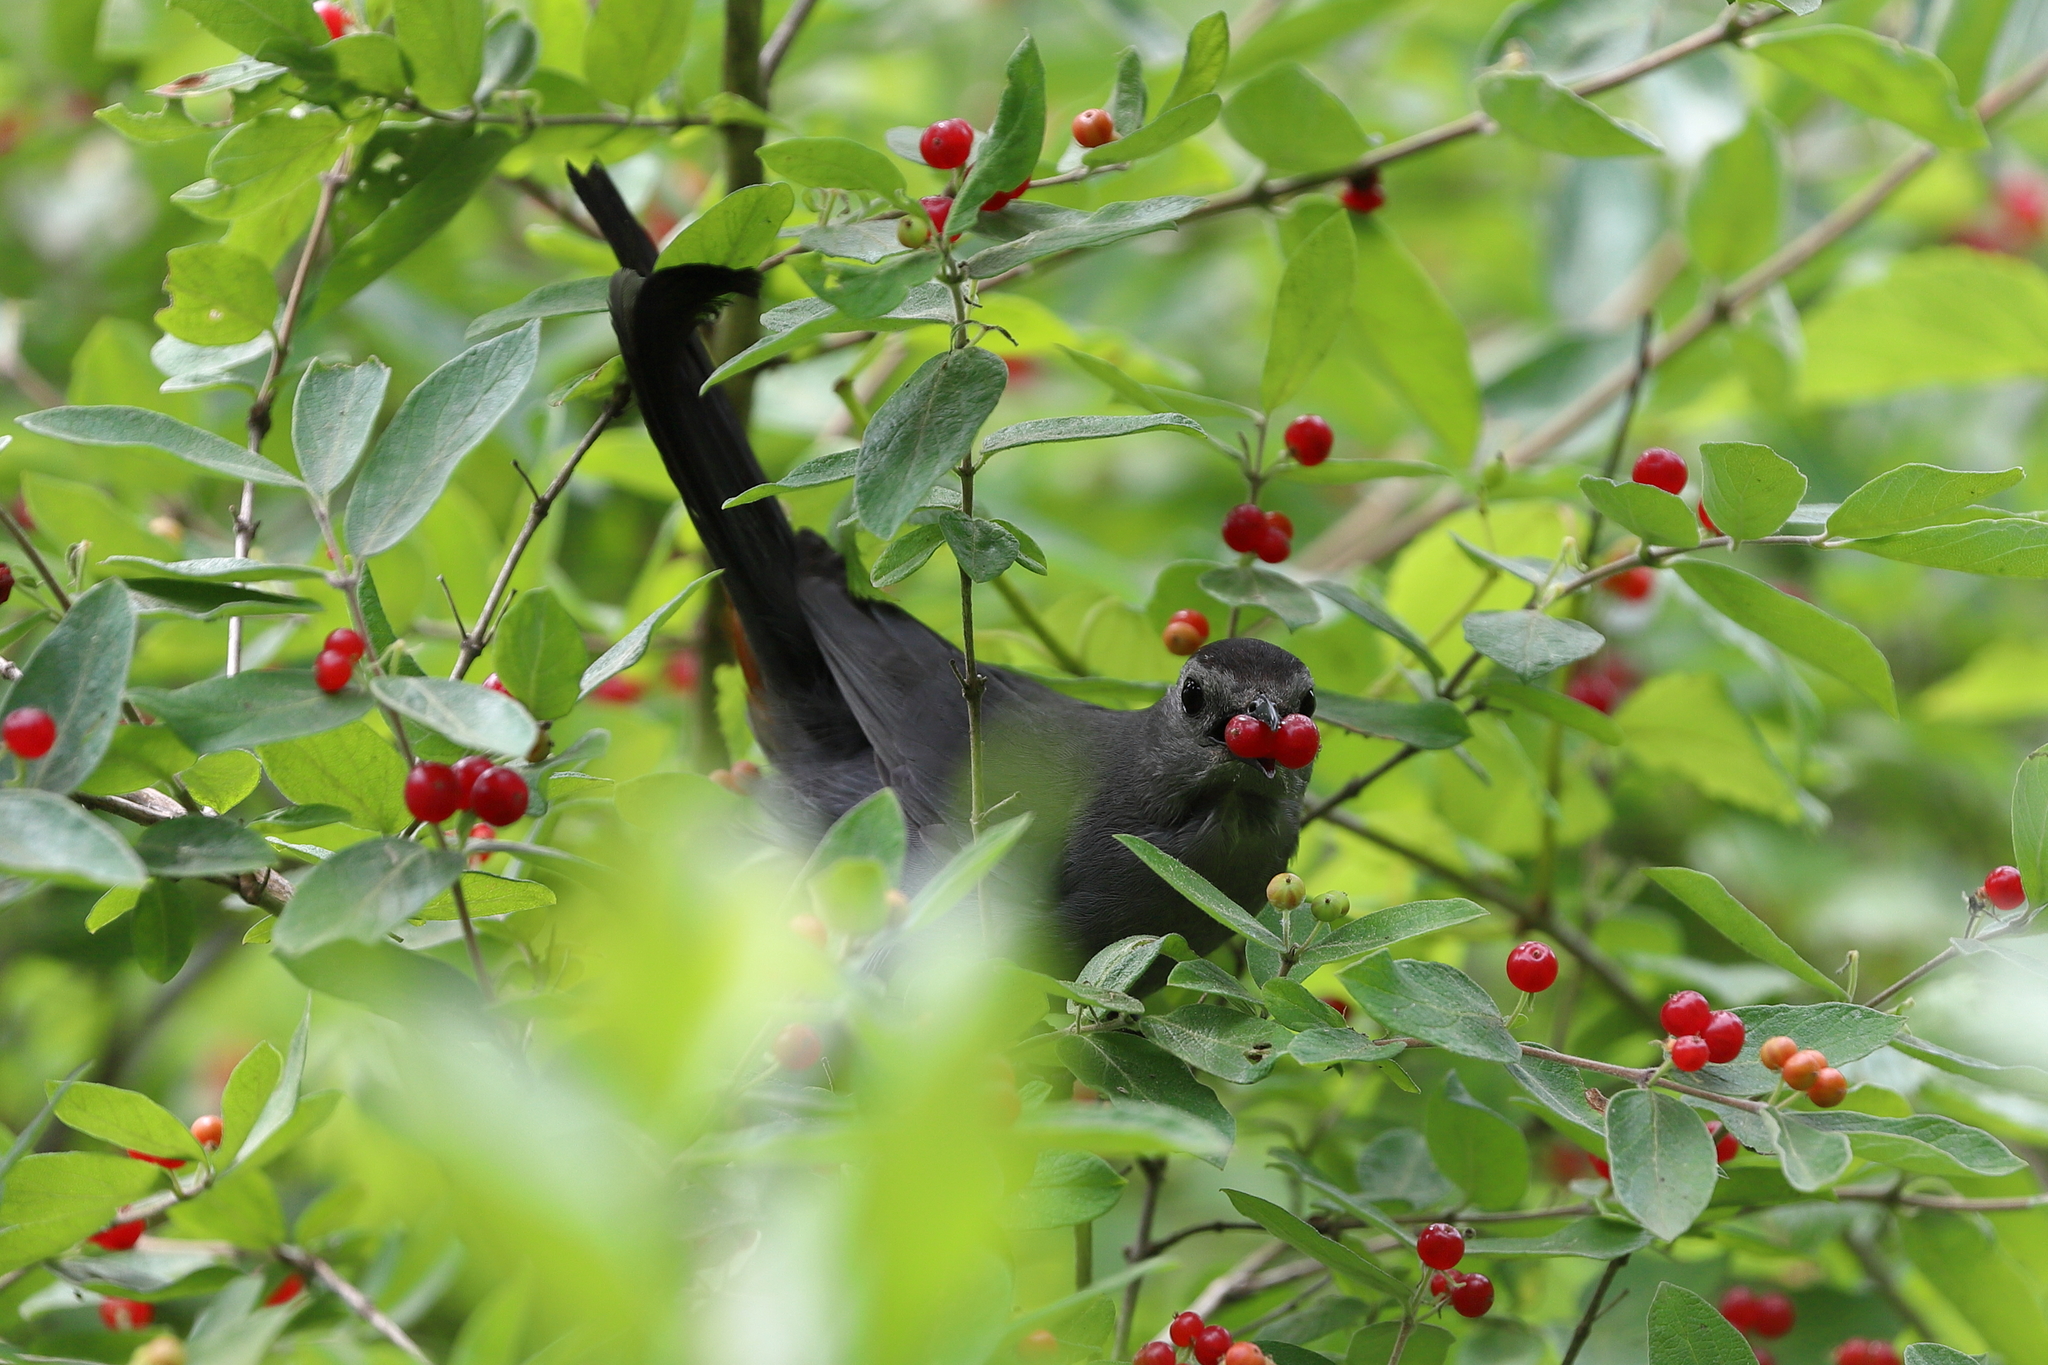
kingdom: Animalia
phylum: Chordata
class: Aves
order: Passeriformes
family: Mimidae
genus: Dumetella
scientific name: Dumetella carolinensis
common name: Gray catbird
